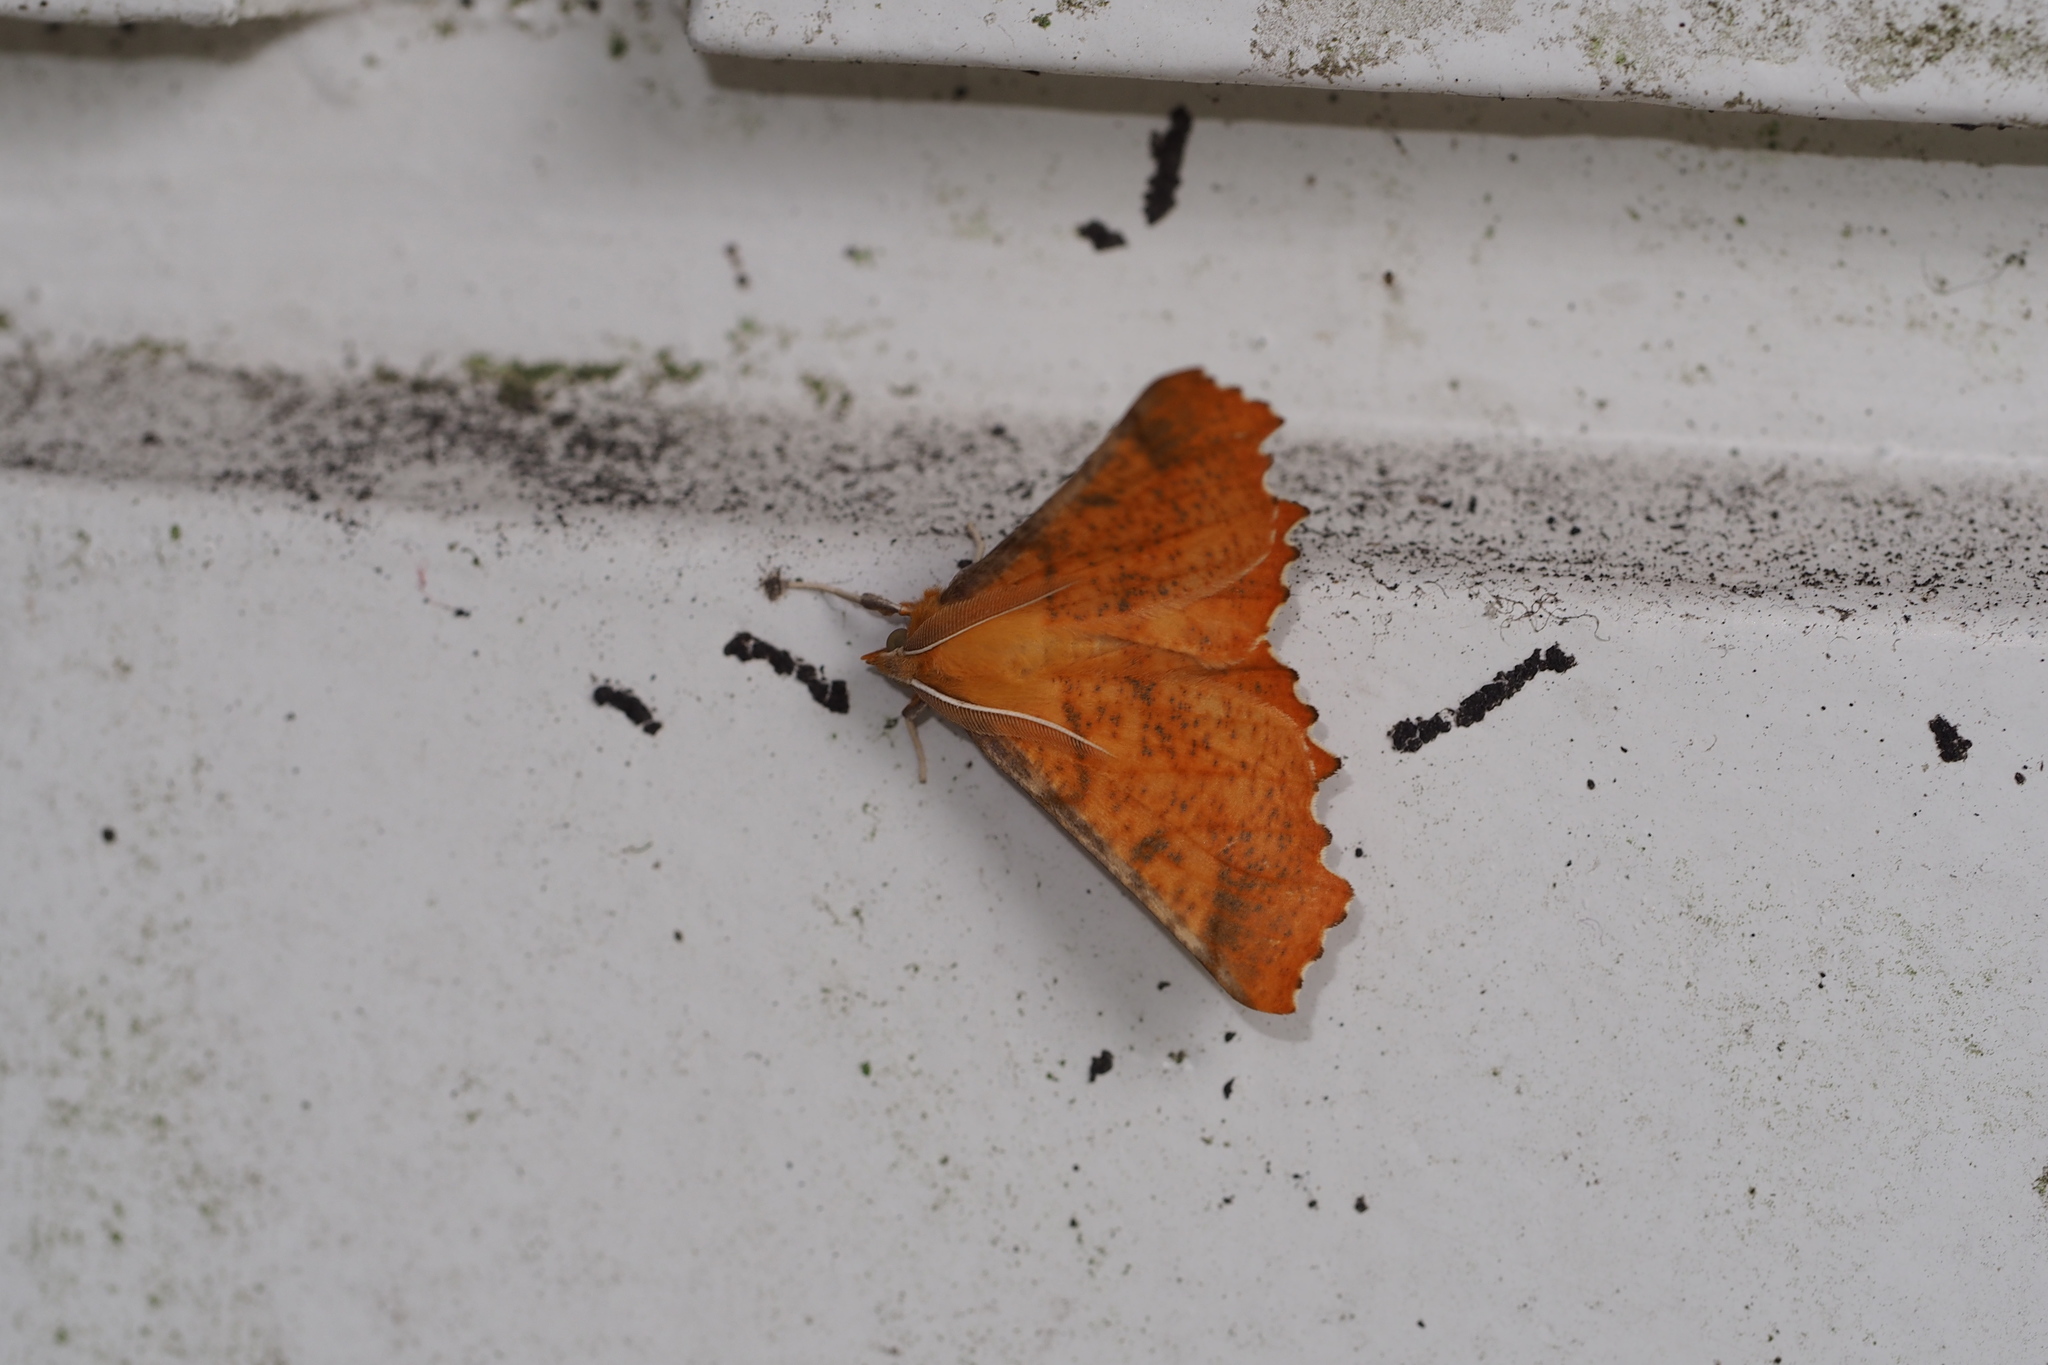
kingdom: Animalia
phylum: Arthropoda
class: Insecta
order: Lepidoptera
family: Geometridae
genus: Ennomos
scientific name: Ennomos autumnaria
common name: Large thorn
